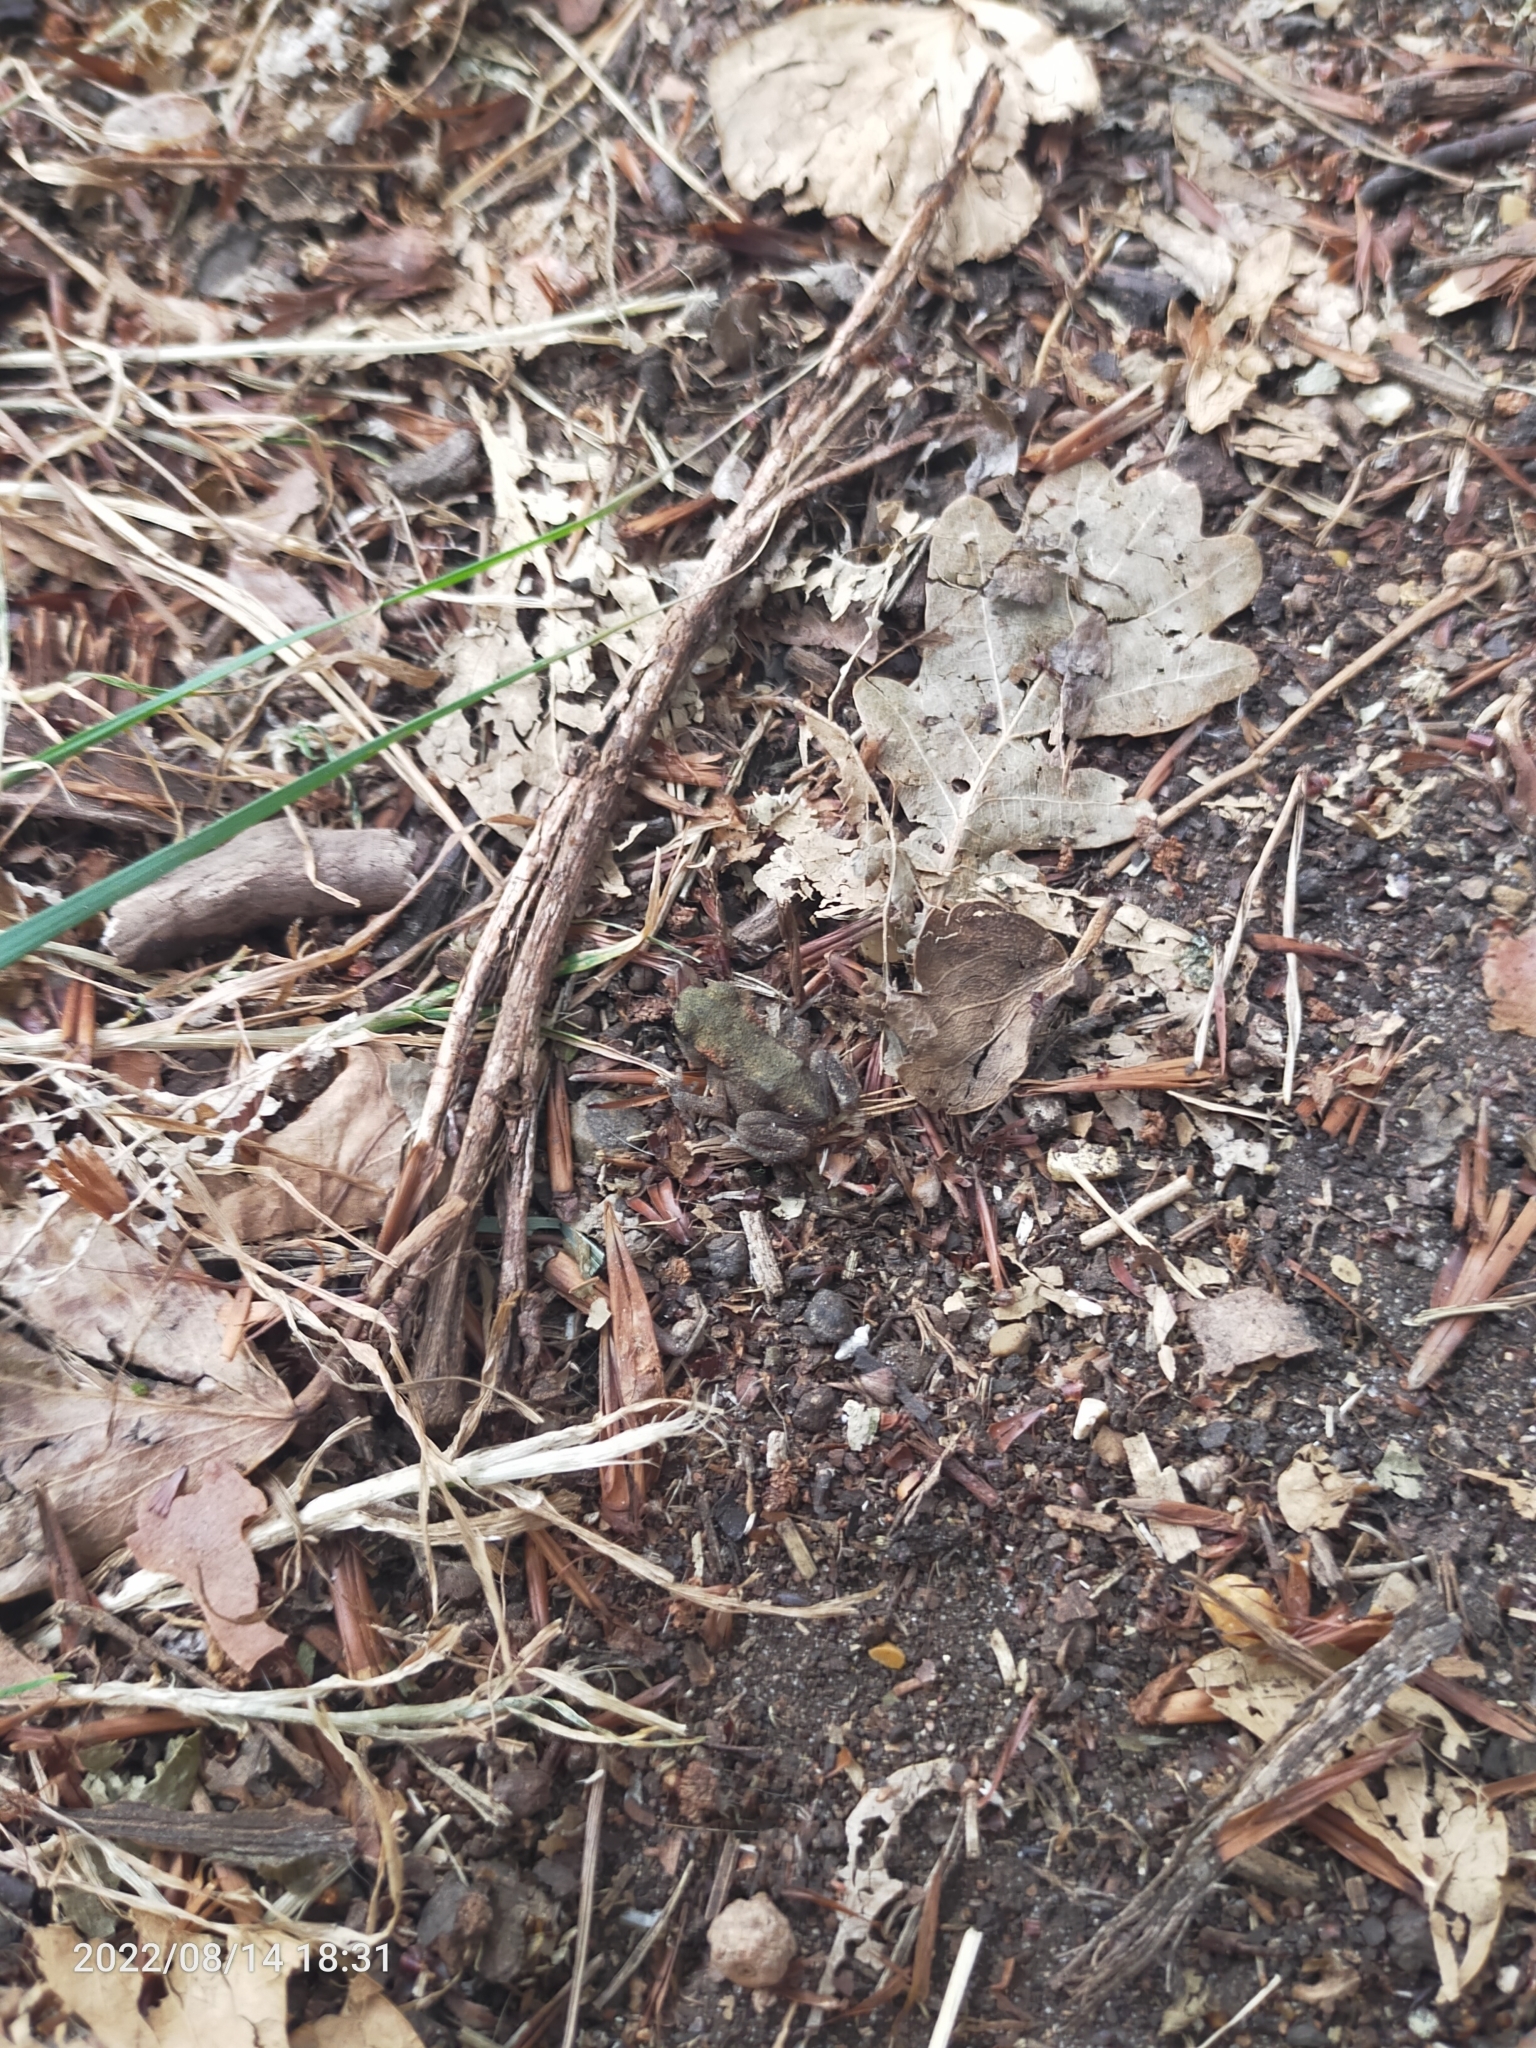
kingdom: Animalia
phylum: Chordata
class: Amphibia
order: Anura
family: Bufonidae
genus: Bufo
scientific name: Bufo bufo
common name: Common toad
